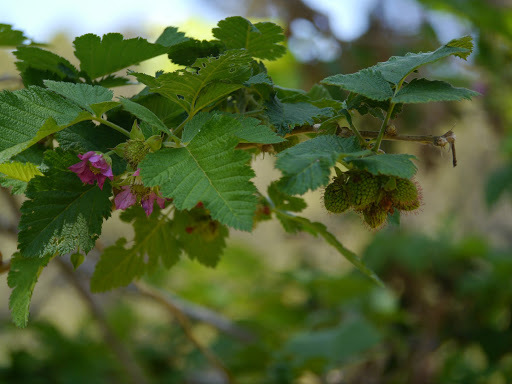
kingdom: Plantae
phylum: Tracheophyta
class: Magnoliopsida
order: Rosales
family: Rosaceae
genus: Rubus
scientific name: Rubus hawaiensis
